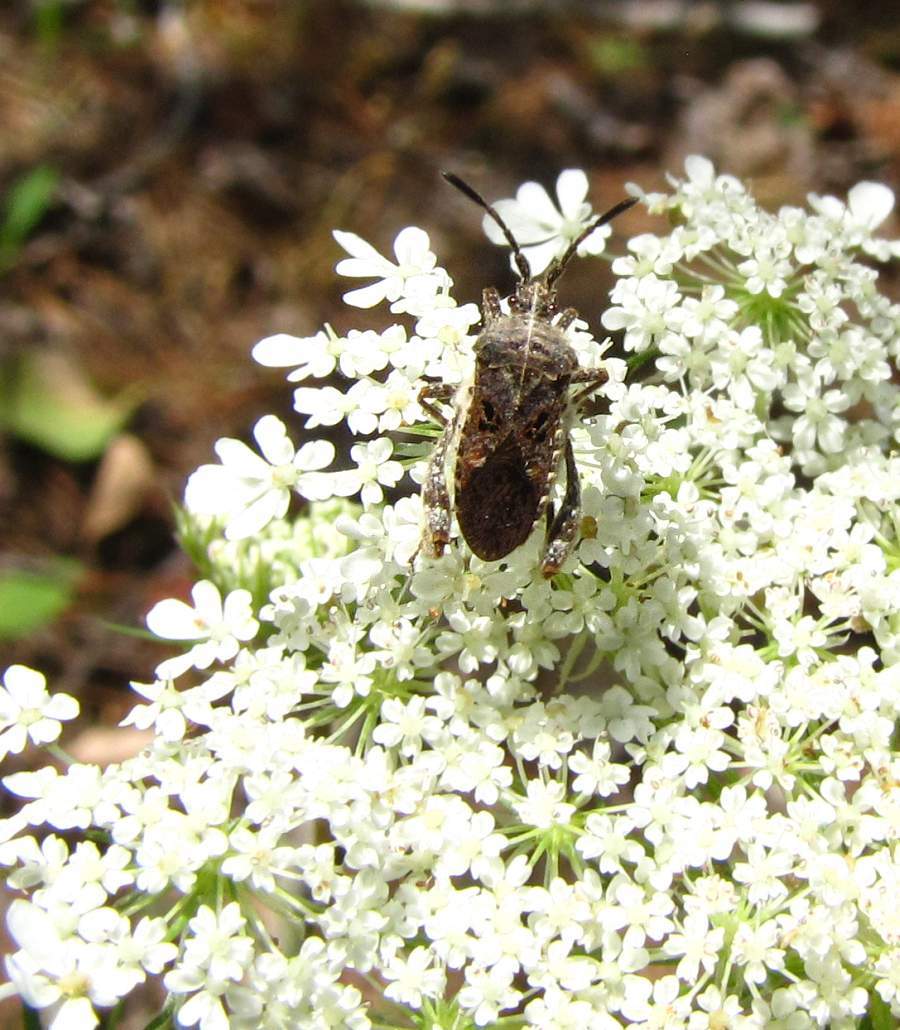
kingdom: Animalia
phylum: Arthropoda
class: Insecta
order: Hemiptera
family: Coreidae
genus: Merocoris
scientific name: Merocoris distinctus
